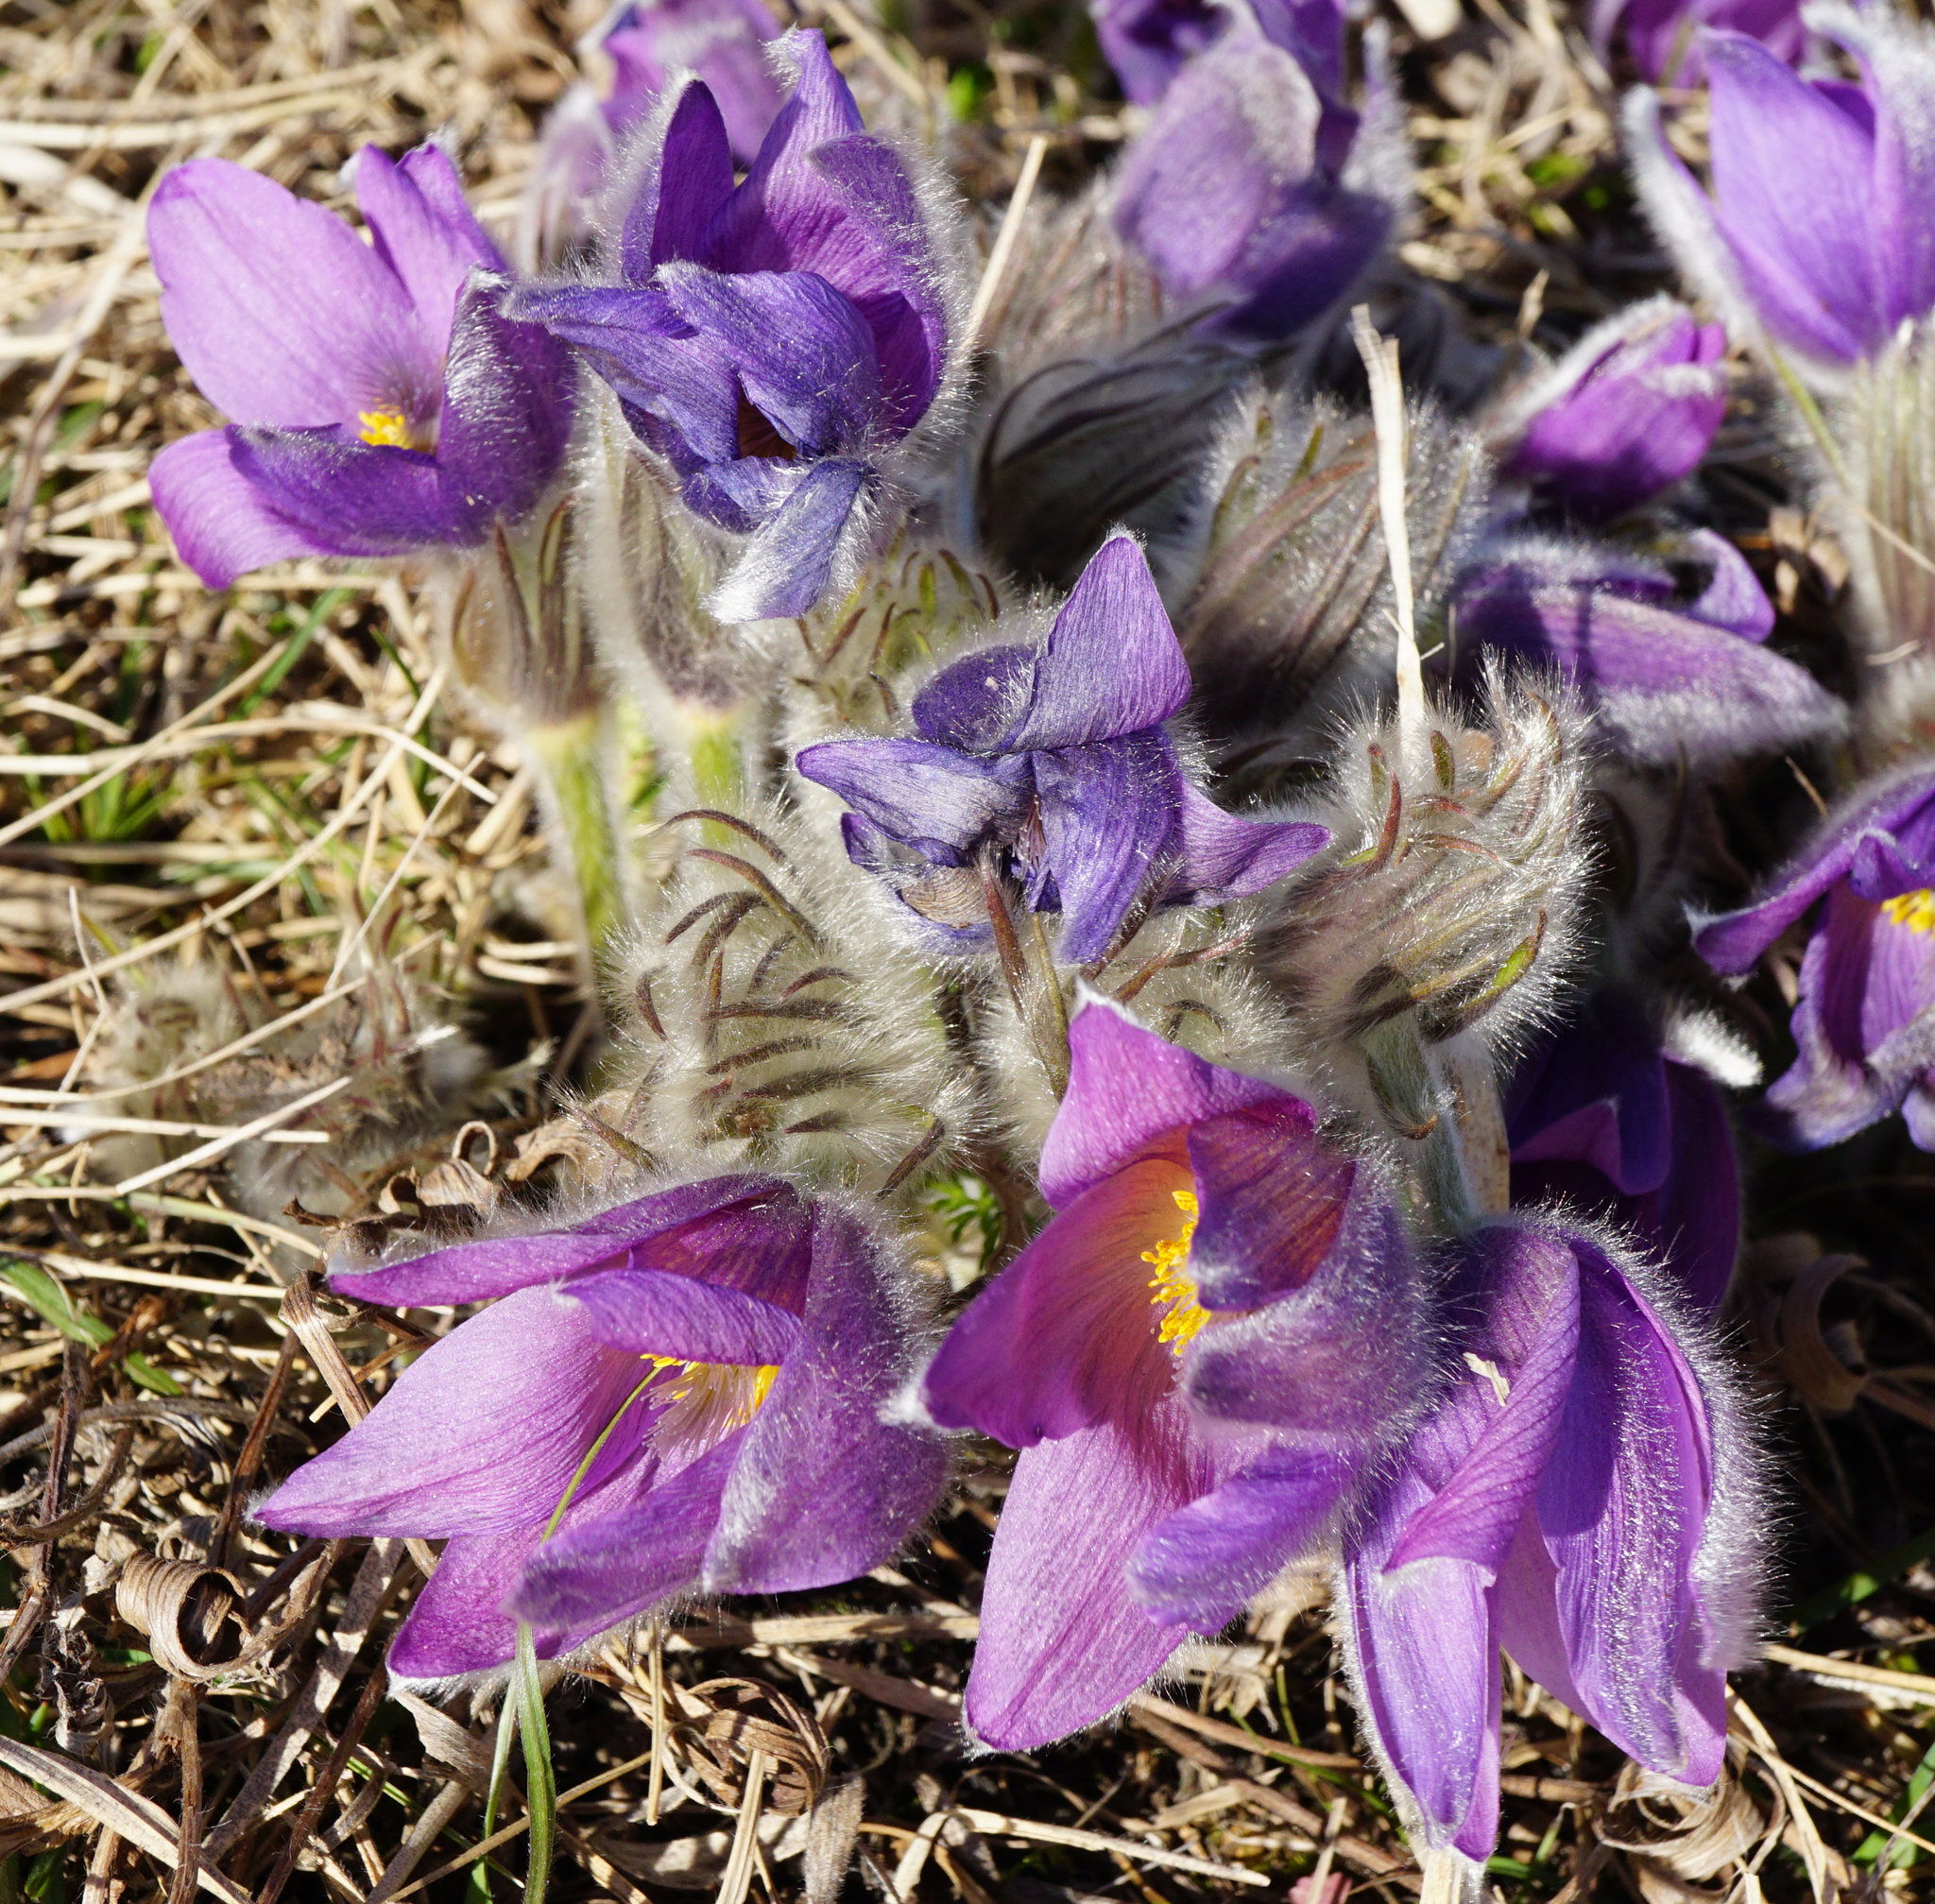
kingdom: Plantae
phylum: Tracheophyta
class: Magnoliopsida
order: Ranunculales
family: Ranunculaceae
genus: Pulsatilla
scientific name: Pulsatilla grandis
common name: Greater pasque flower
